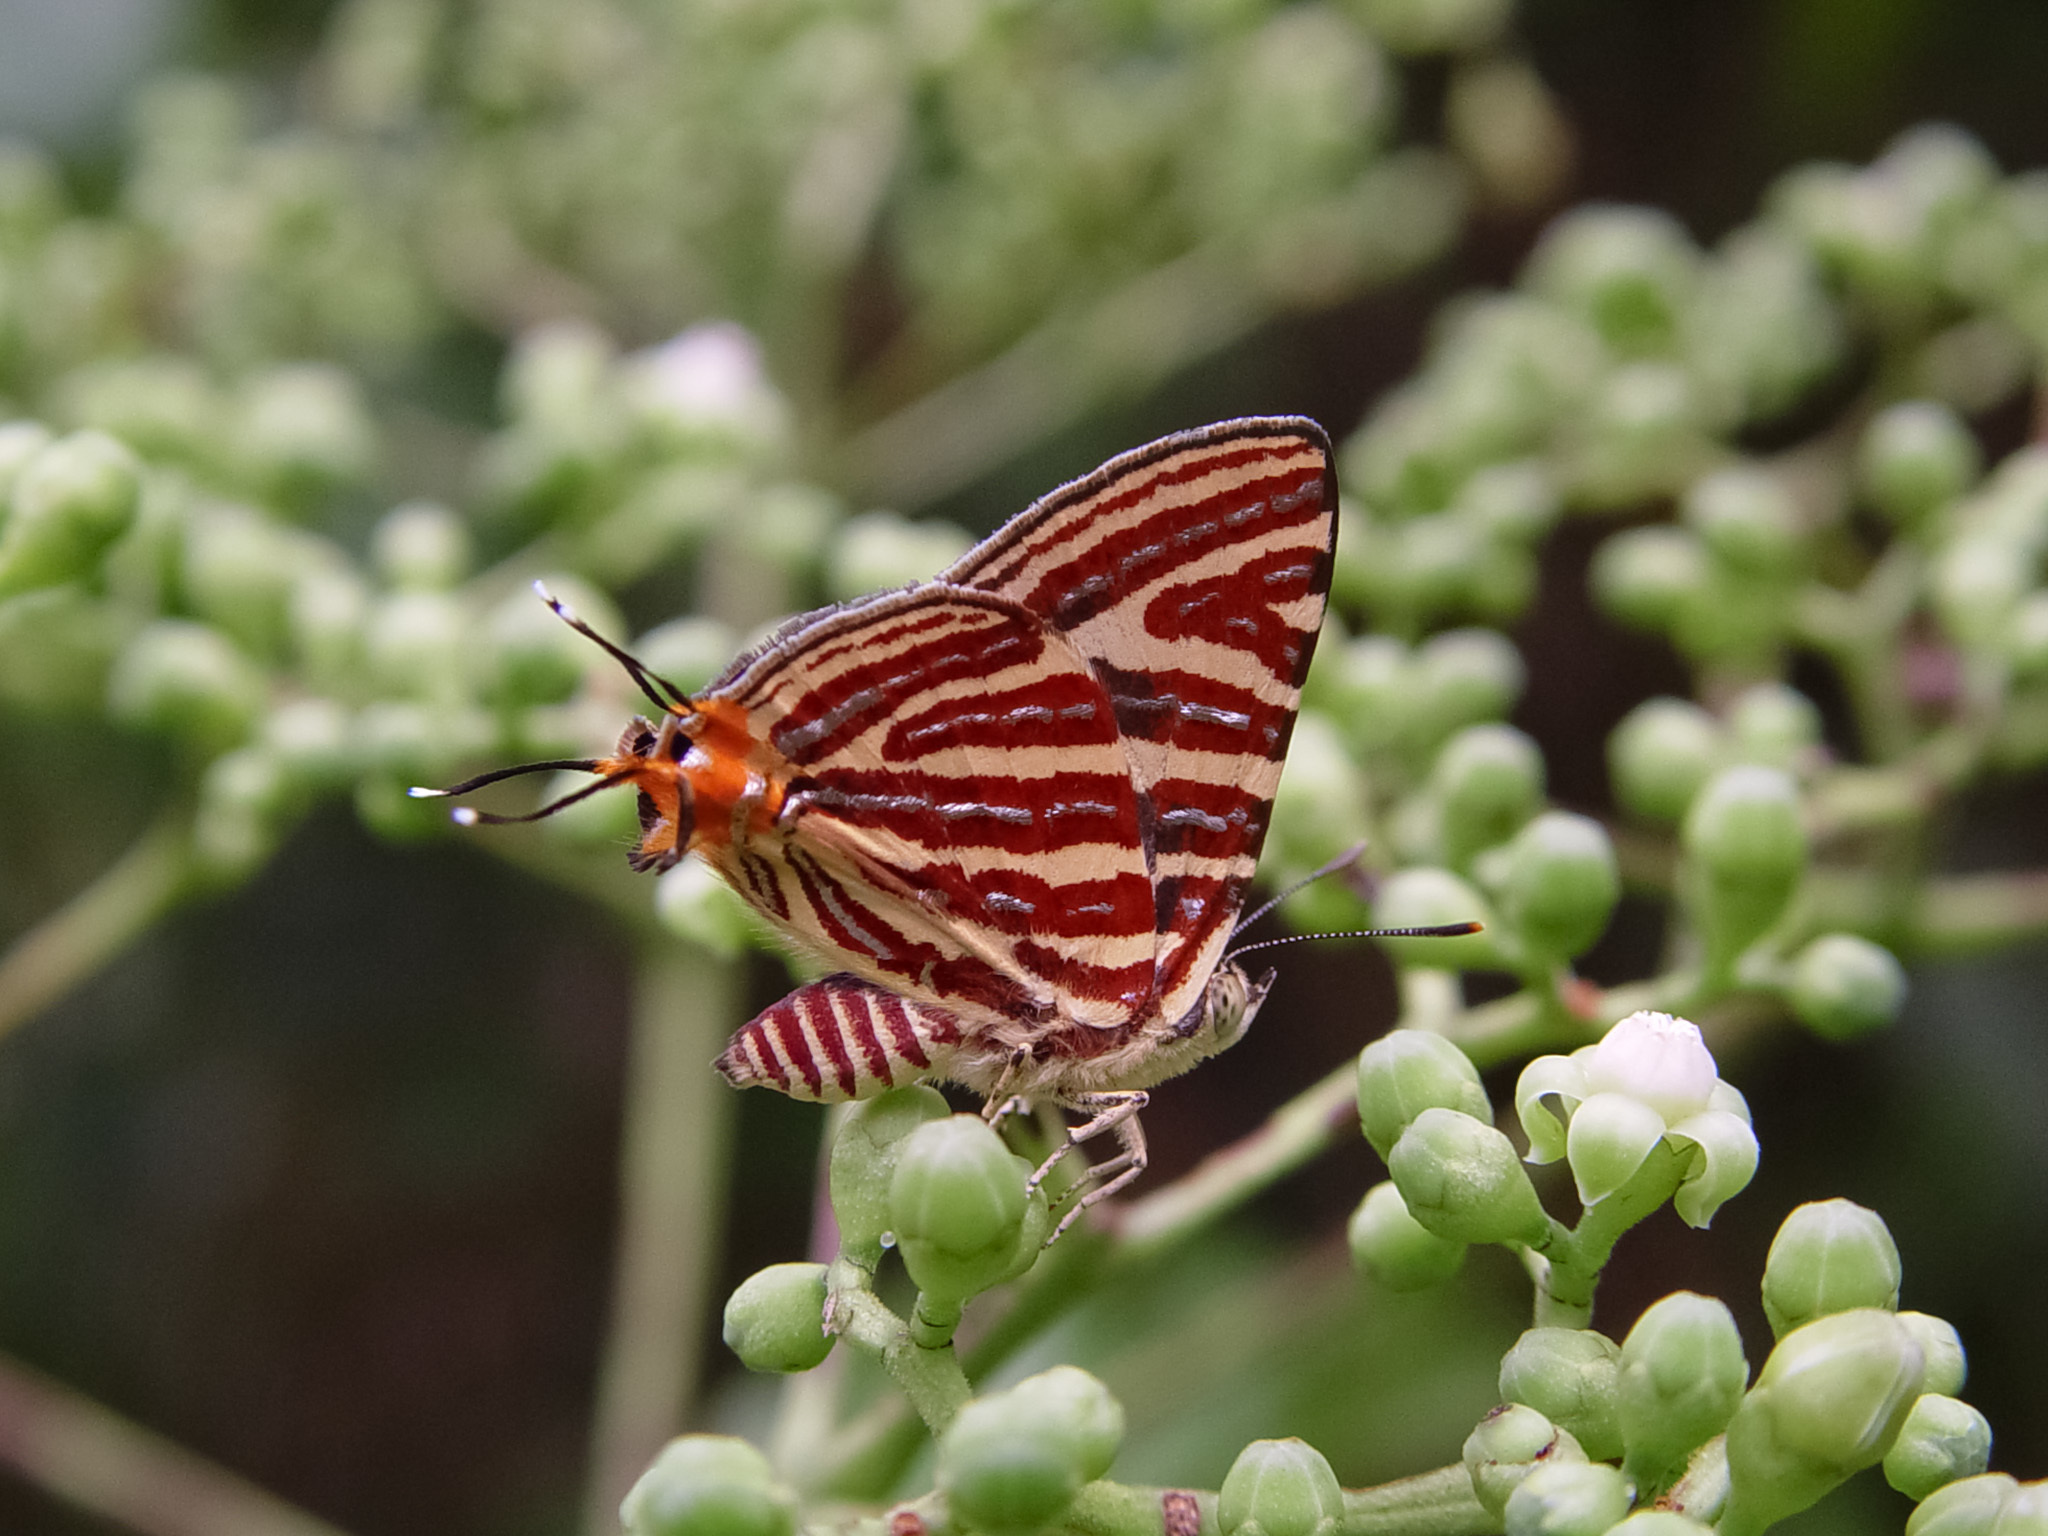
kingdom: Animalia
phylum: Arthropoda
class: Insecta
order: Lepidoptera
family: Lycaenidae
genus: Cigaritis
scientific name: Cigaritis lohita
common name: Long-banded silverline
